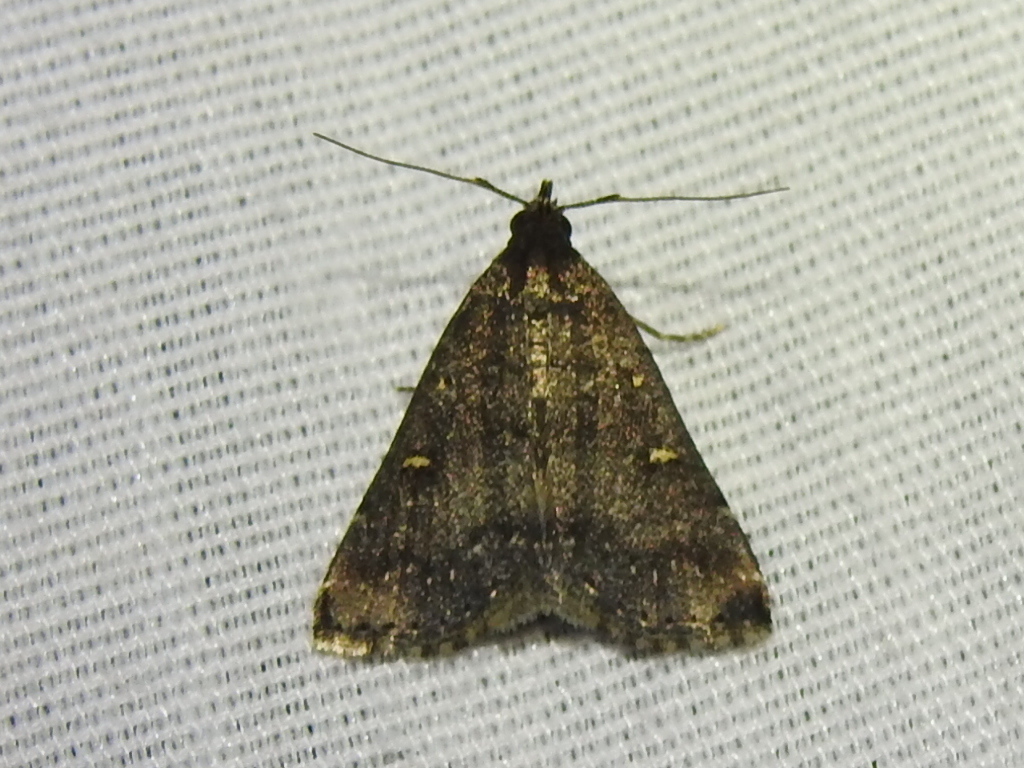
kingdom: Animalia
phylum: Arthropoda
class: Insecta
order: Lepidoptera
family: Erebidae
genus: Tetanolita
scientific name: Tetanolita mynesalis
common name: Smoky tetanolita moth
